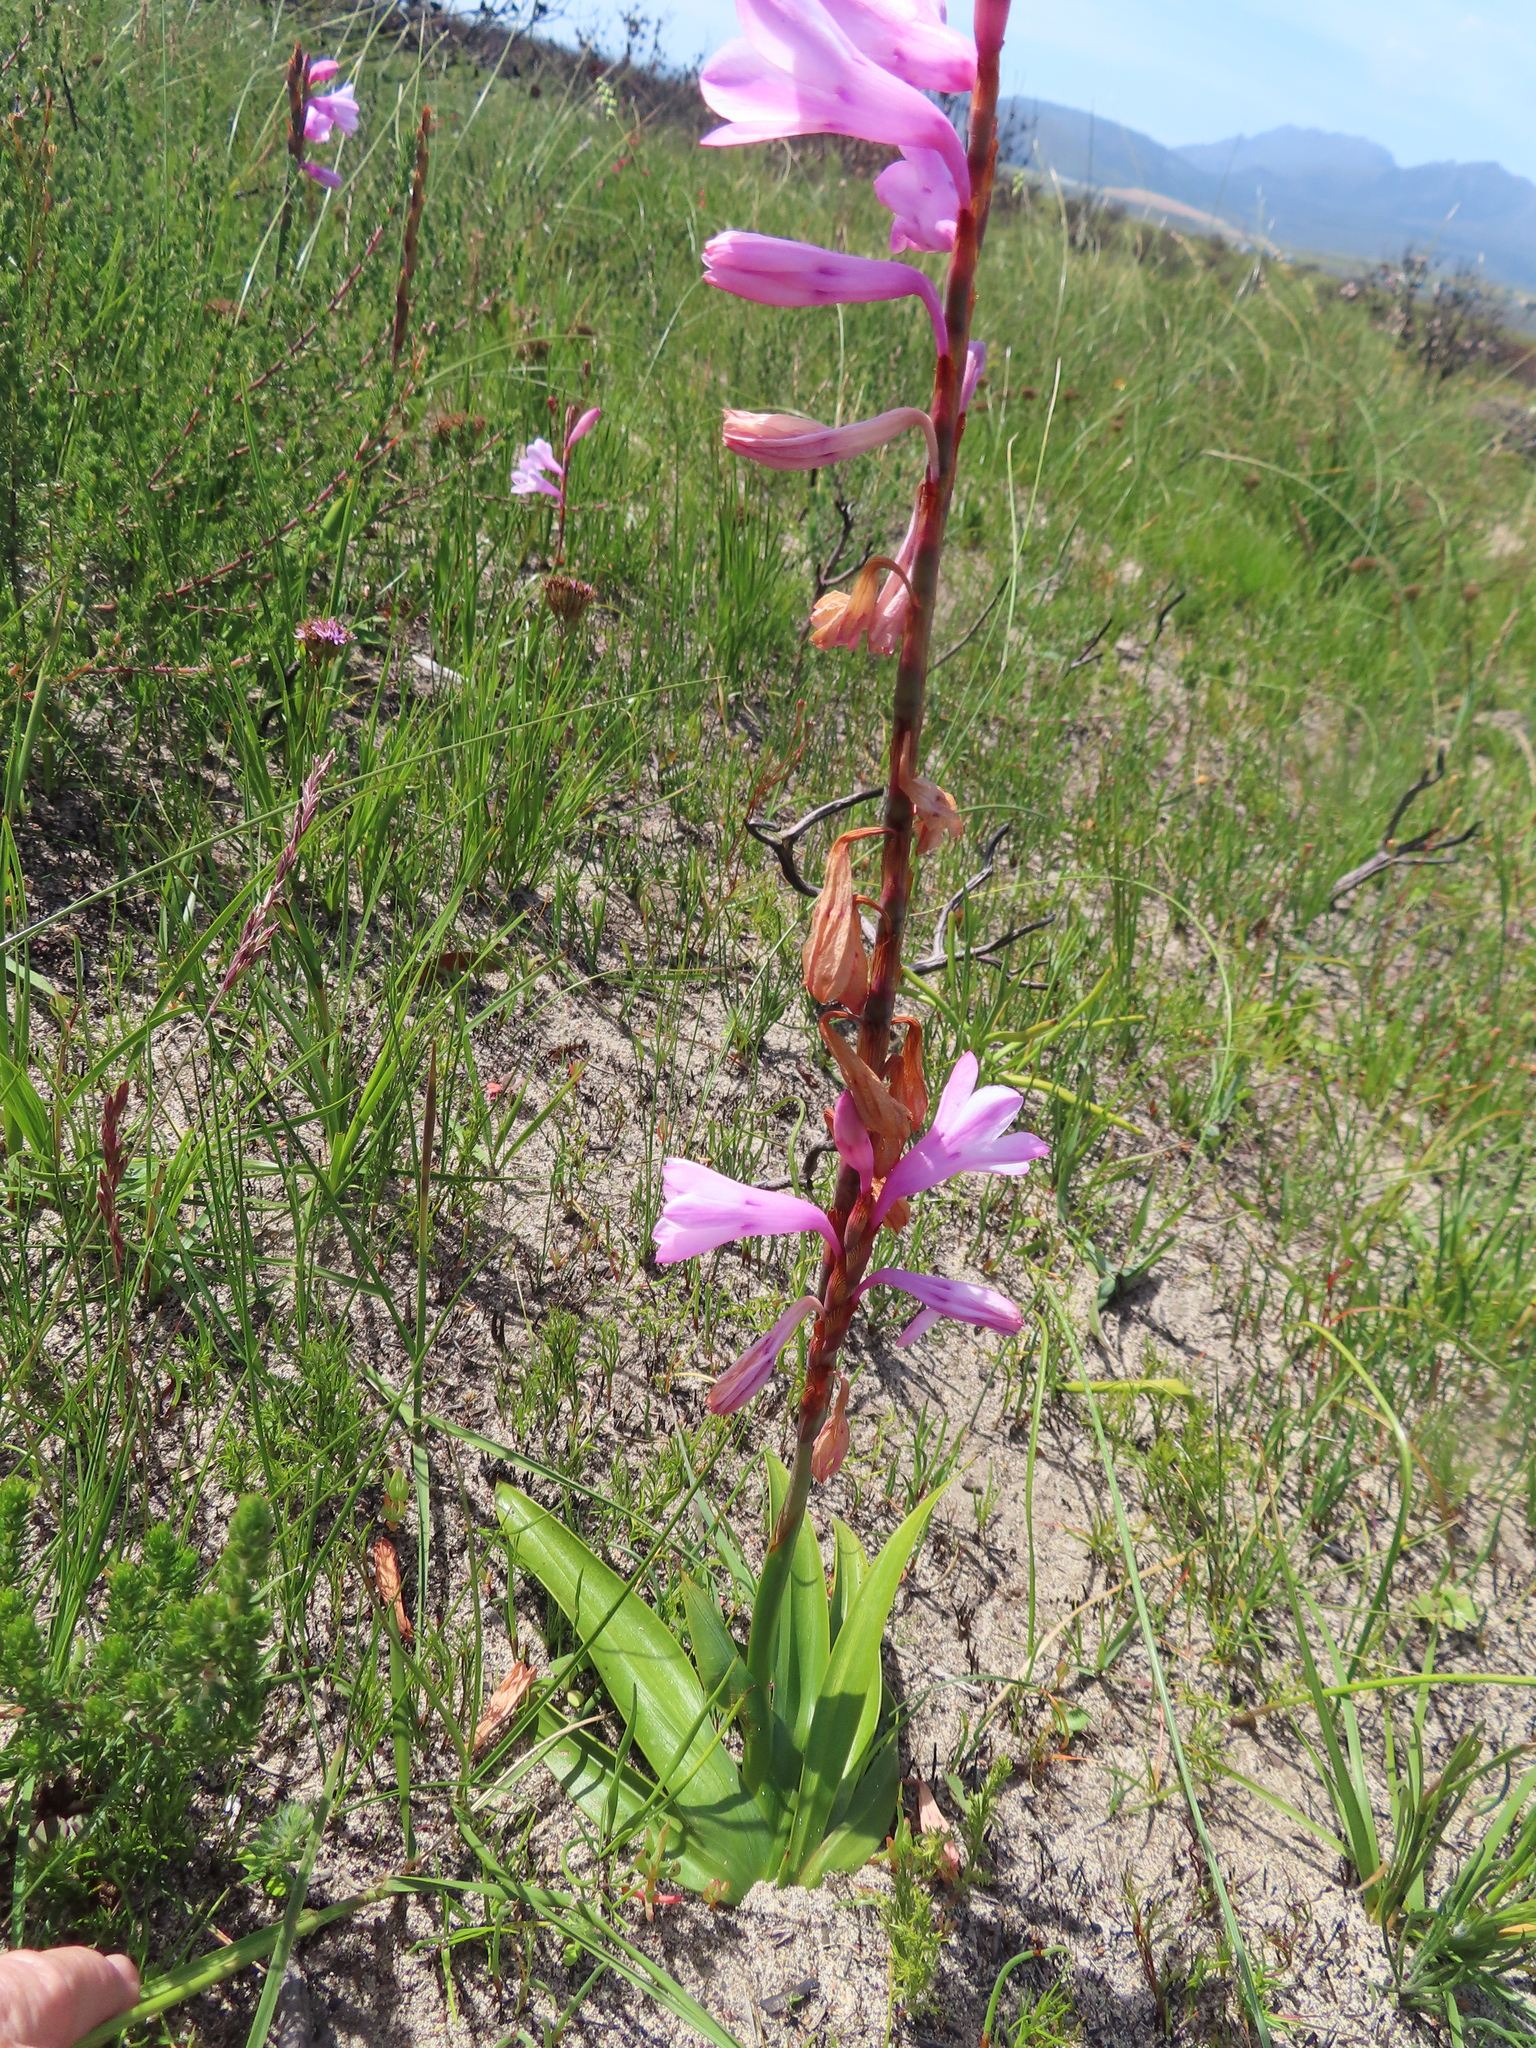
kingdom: Plantae
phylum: Tracheophyta
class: Liliopsida
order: Asparagales
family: Iridaceae
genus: Watsonia
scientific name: Watsonia laccata
